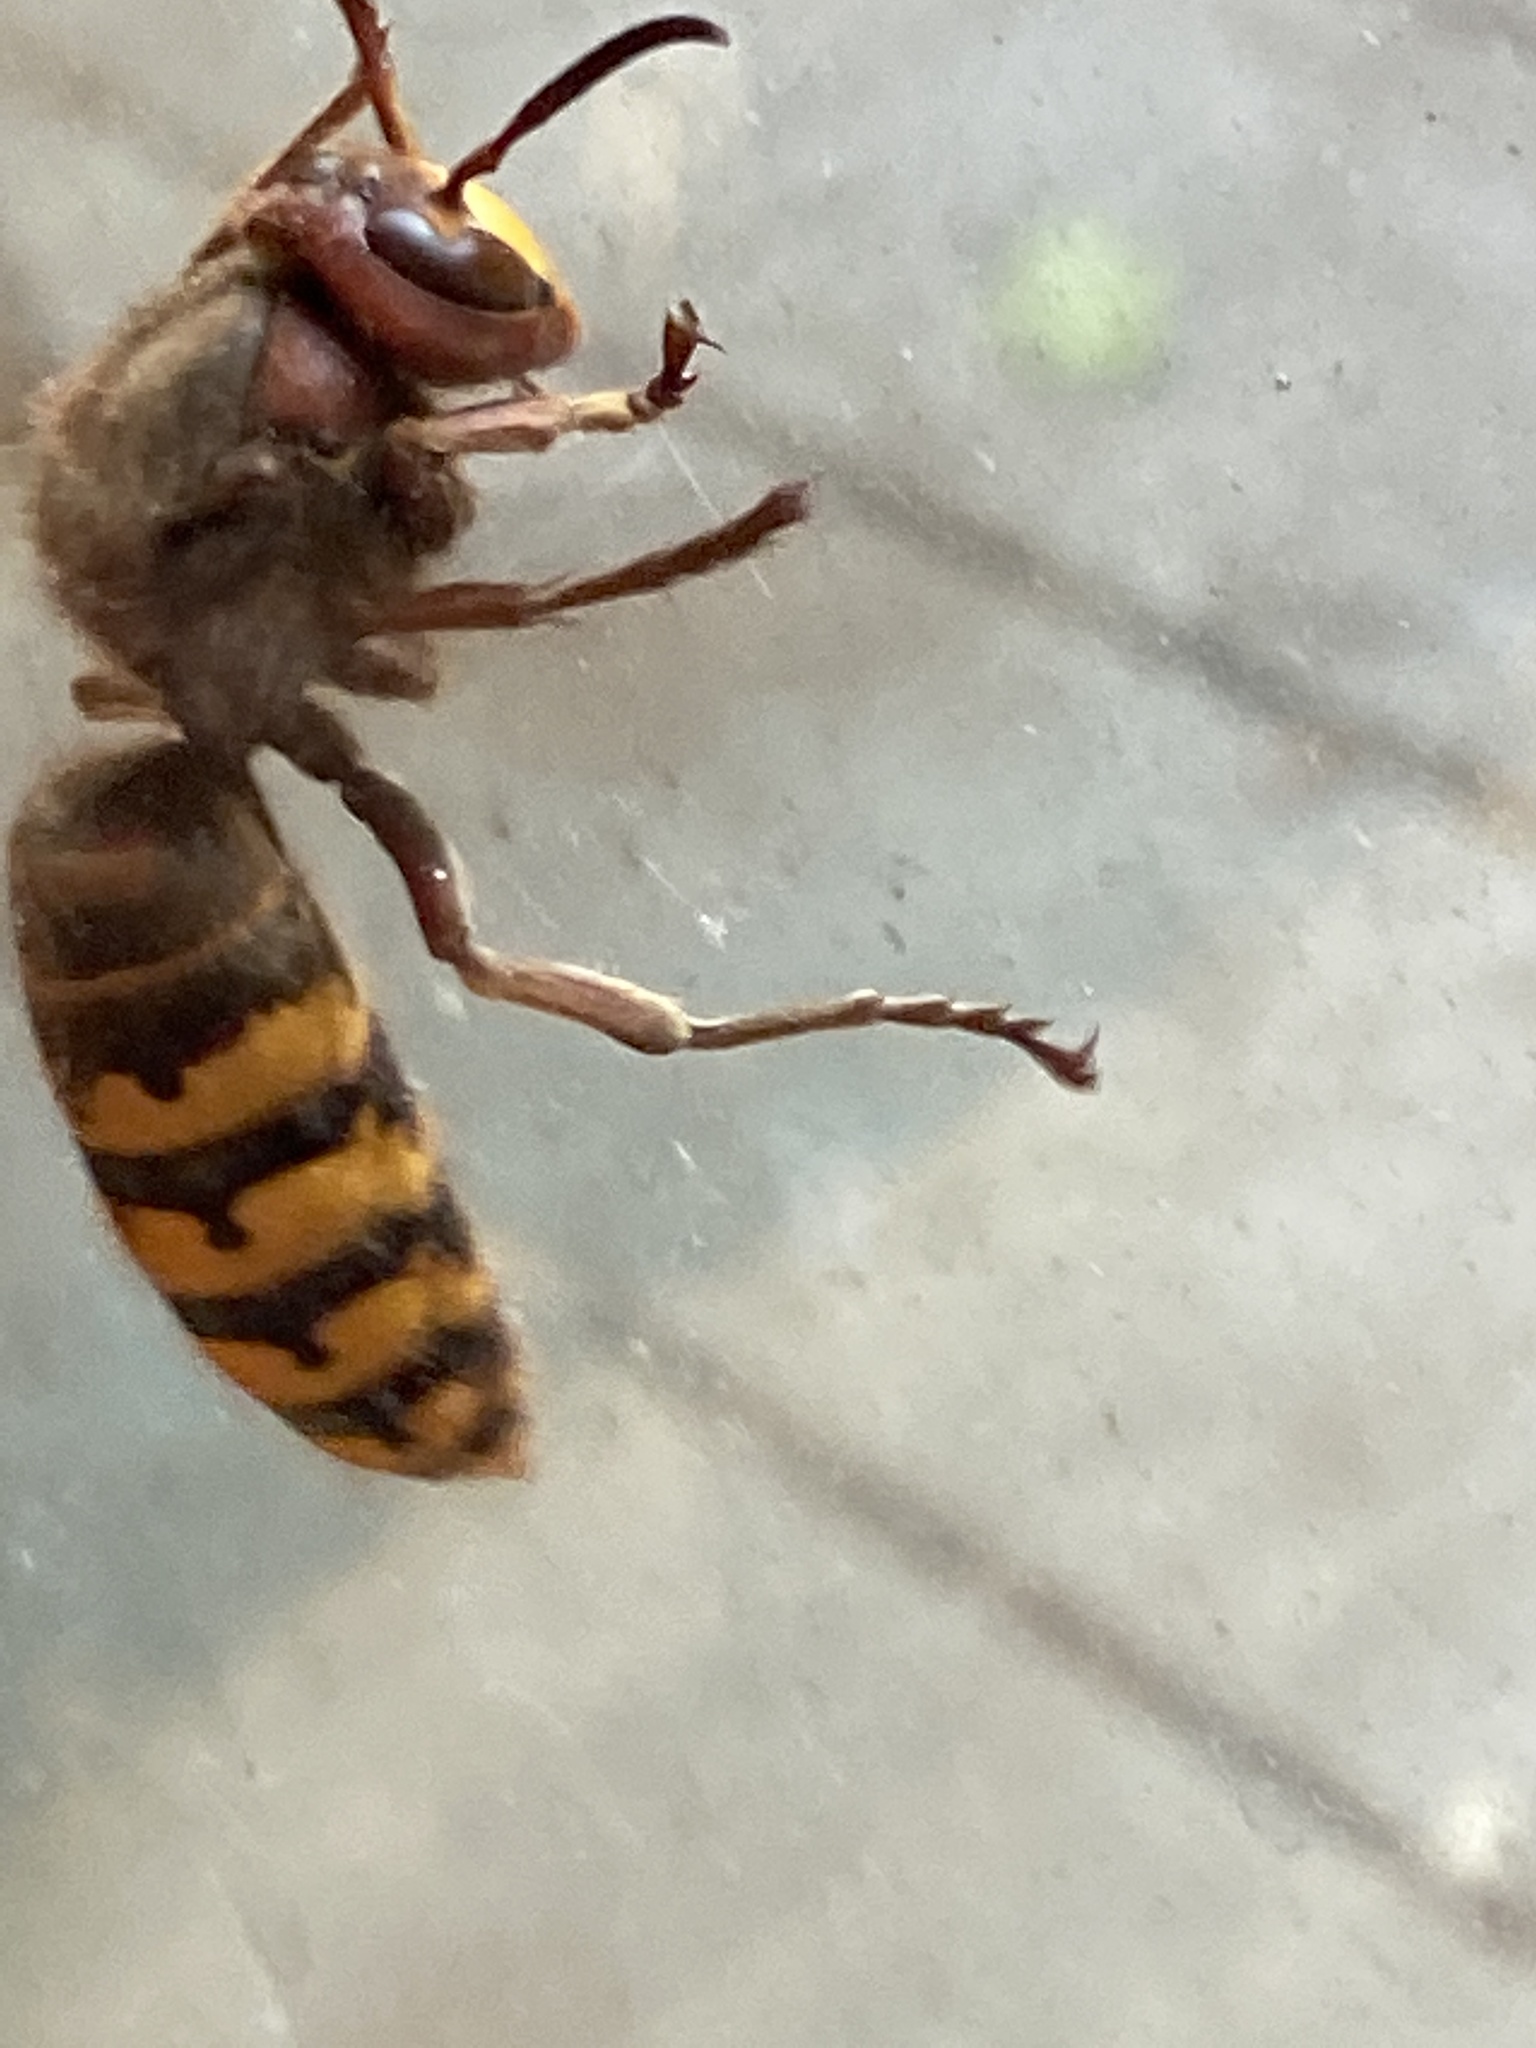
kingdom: Animalia
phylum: Arthropoda
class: Insecta
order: Hymenoptera
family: Vespidae
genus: Vespa
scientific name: Vespa crabro
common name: Hornet
